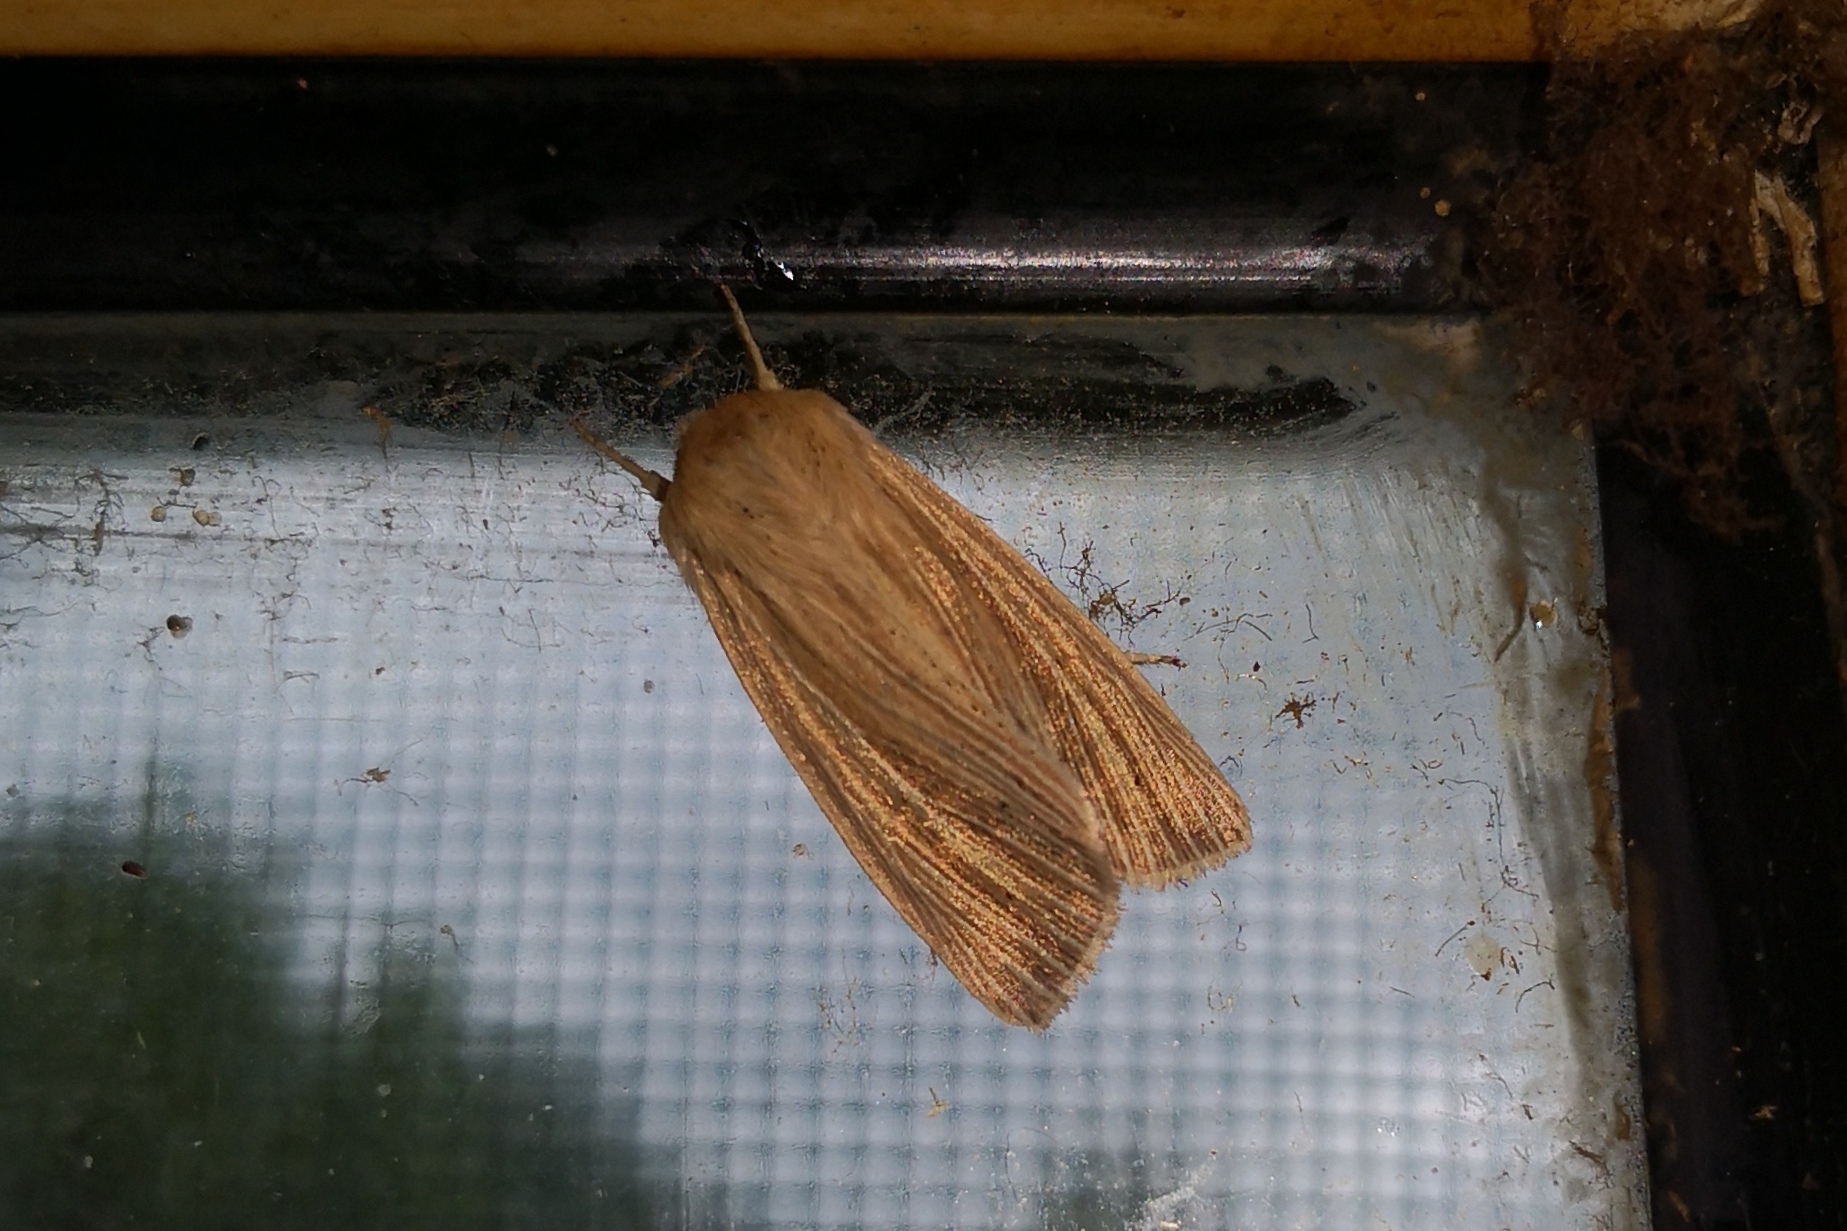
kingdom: Animalia
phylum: Arthropoda
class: Insecta
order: Lepidoptera
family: Noctuidae
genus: Mythimna
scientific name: Mythimna pallens
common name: Common wainscot
